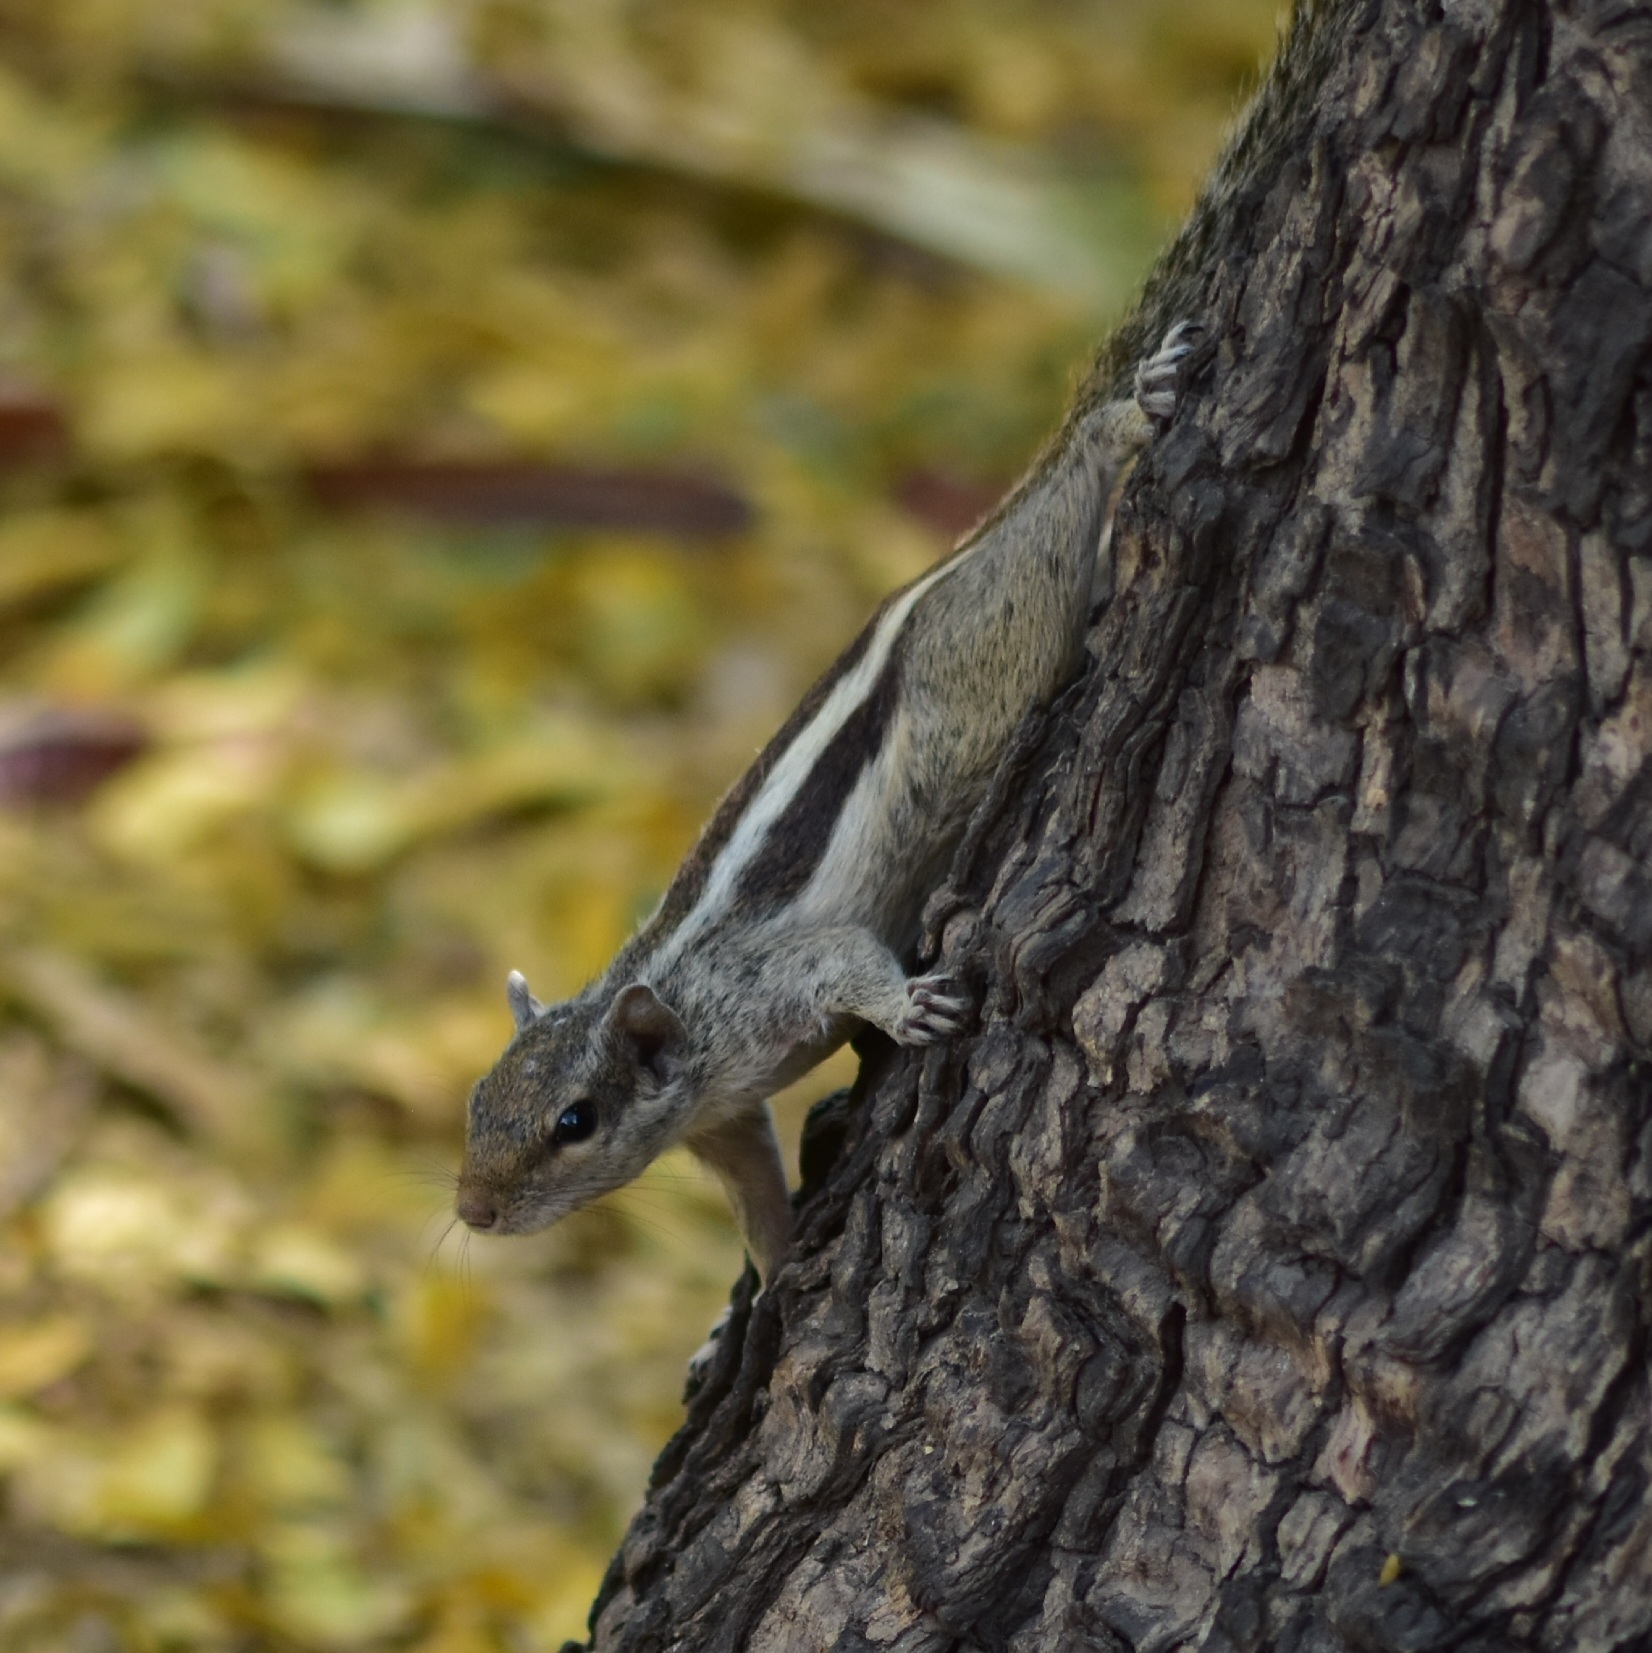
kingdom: Animalia
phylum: Chordata
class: Mammalia
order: Rodentia
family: Sciuridae
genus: Funambulus
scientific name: Funambulus pennantii
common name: Northern palm squirrel
